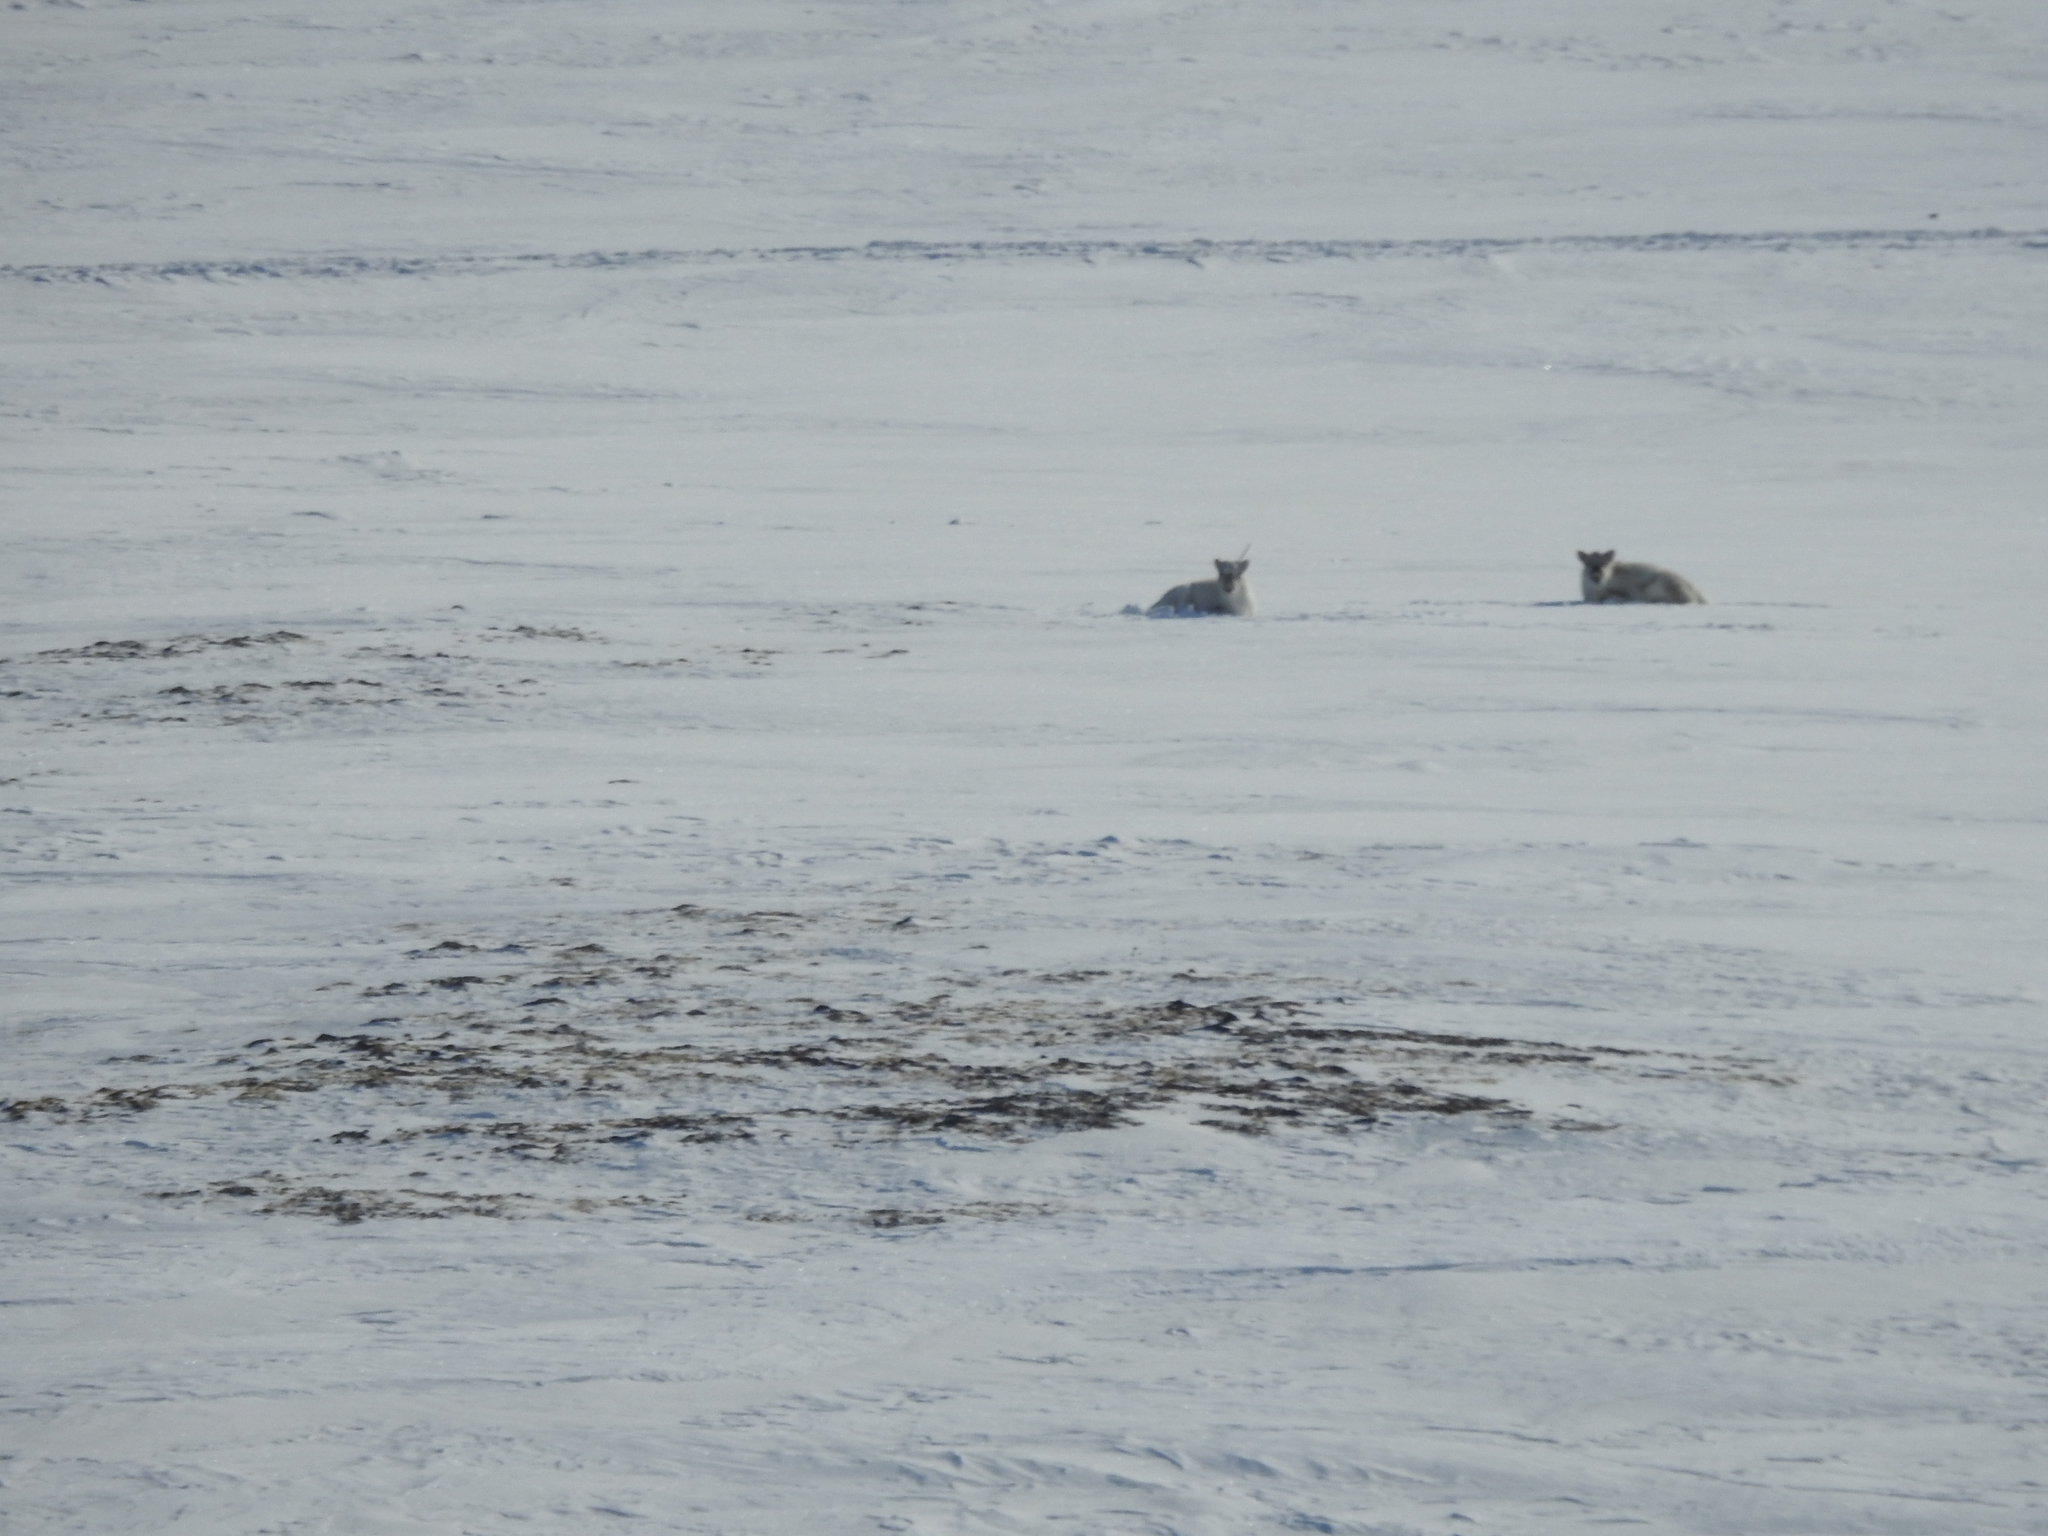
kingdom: Animalia
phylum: Chordata
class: Mammalia
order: Artiodactyla
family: Cervidae
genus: Rangifer
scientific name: Rangifer tarandus
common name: Reindeer
